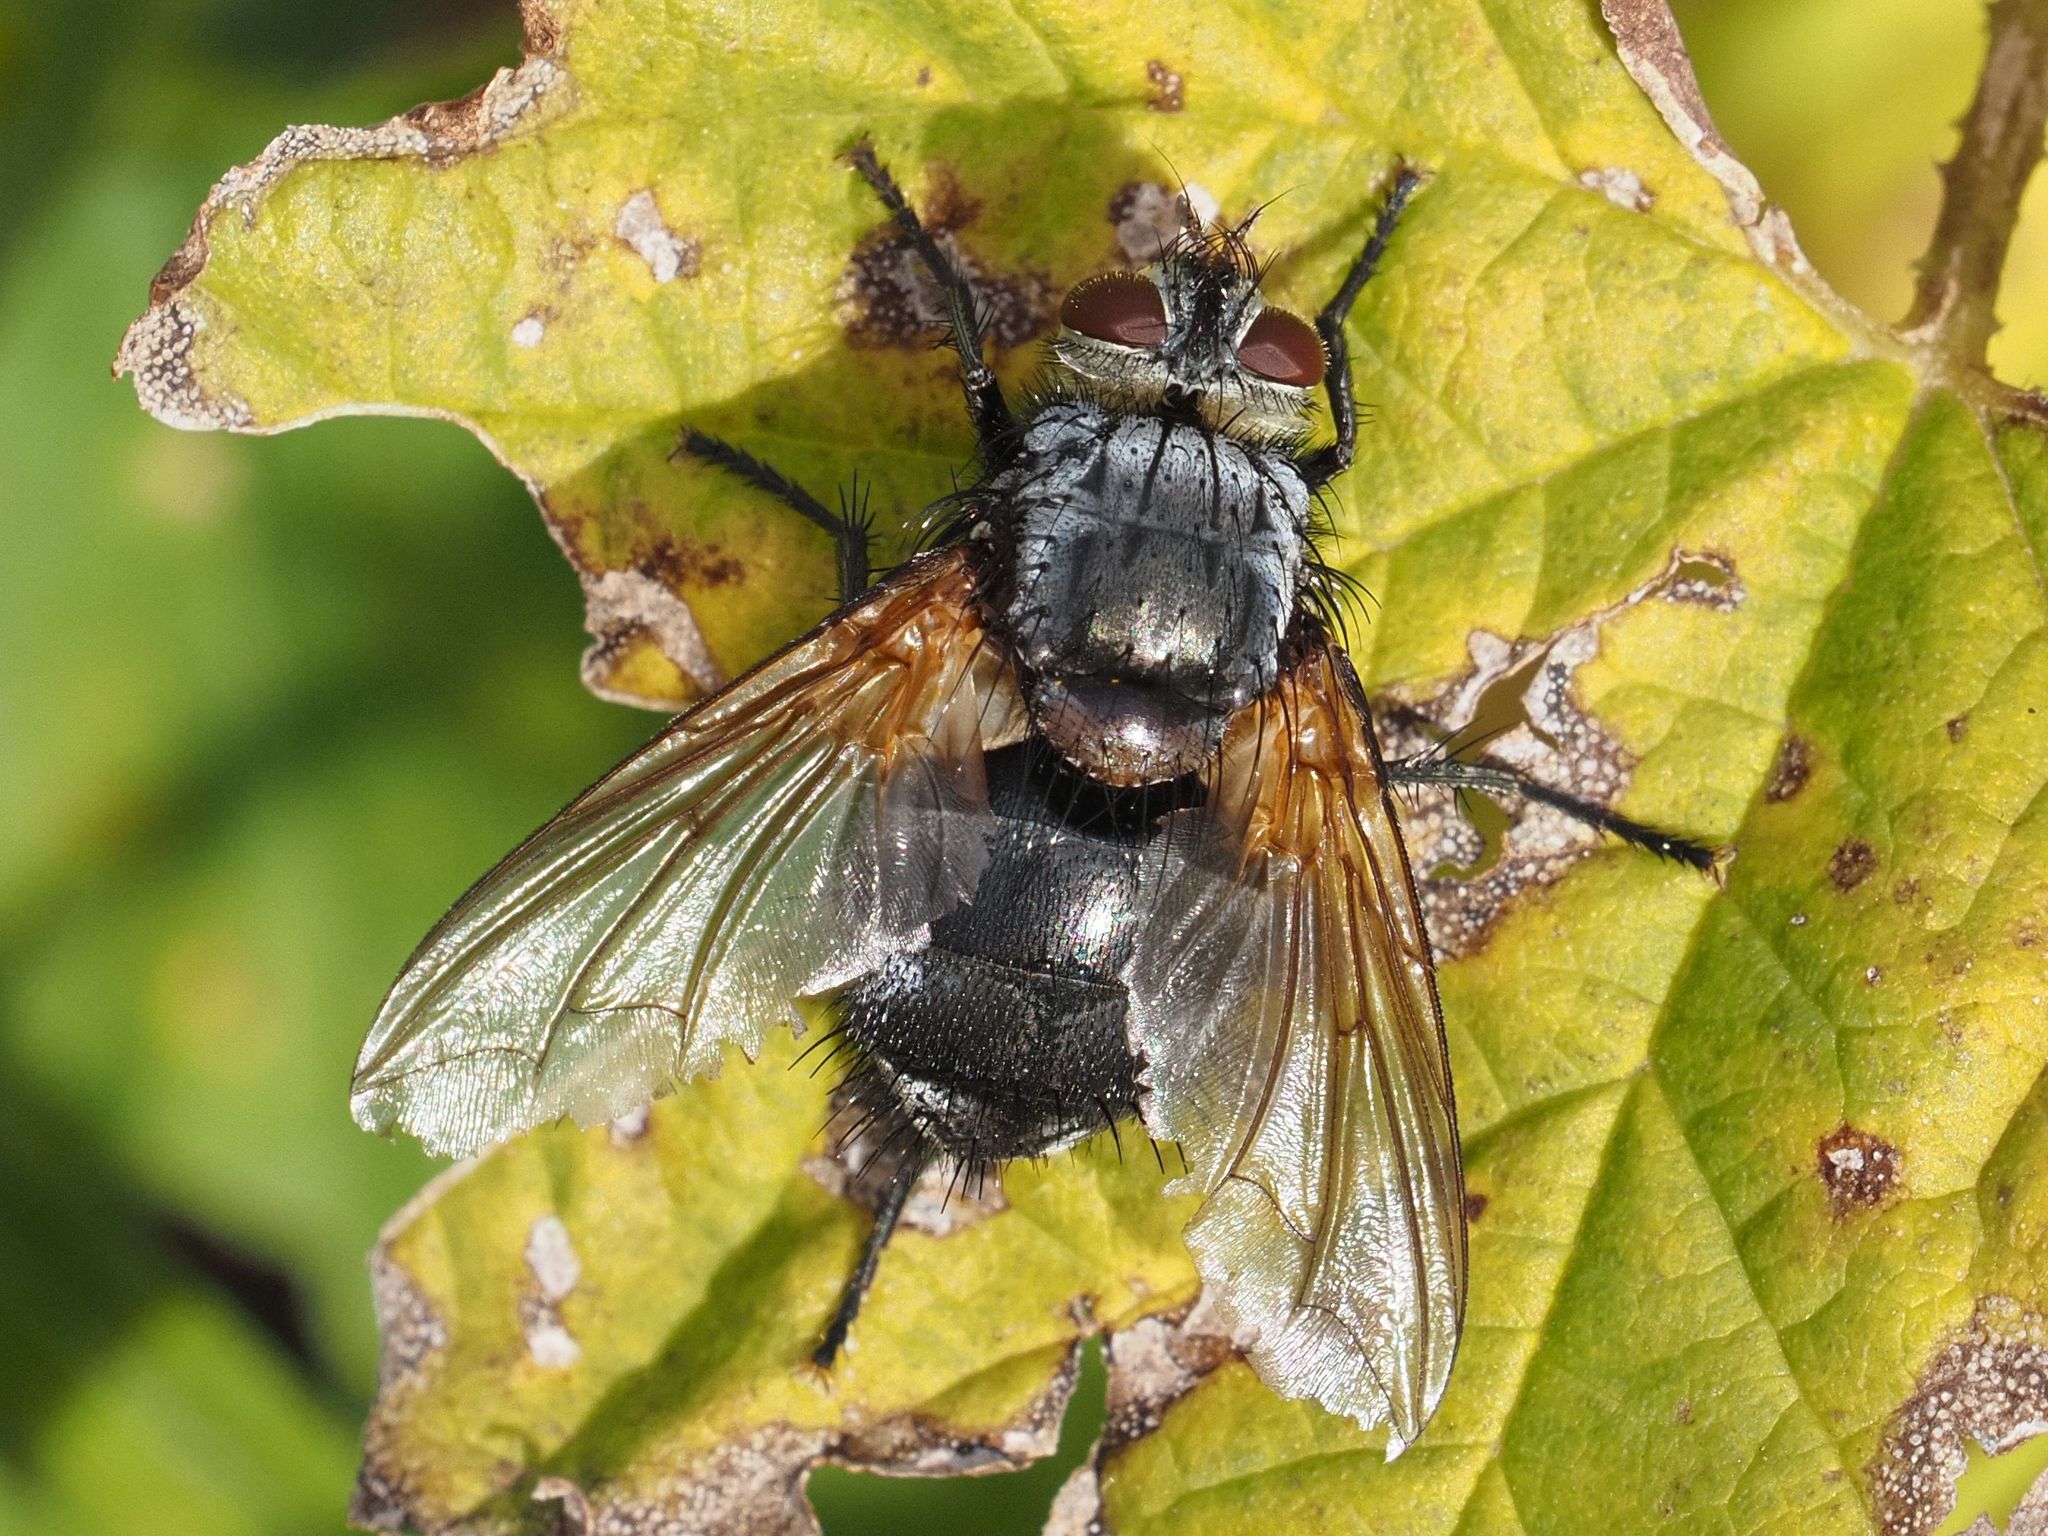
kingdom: Animalia
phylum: Arthropoda
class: Insecta
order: Diptera
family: Tachinidae
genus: Nemoraea
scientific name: Nemoraea pellucida
